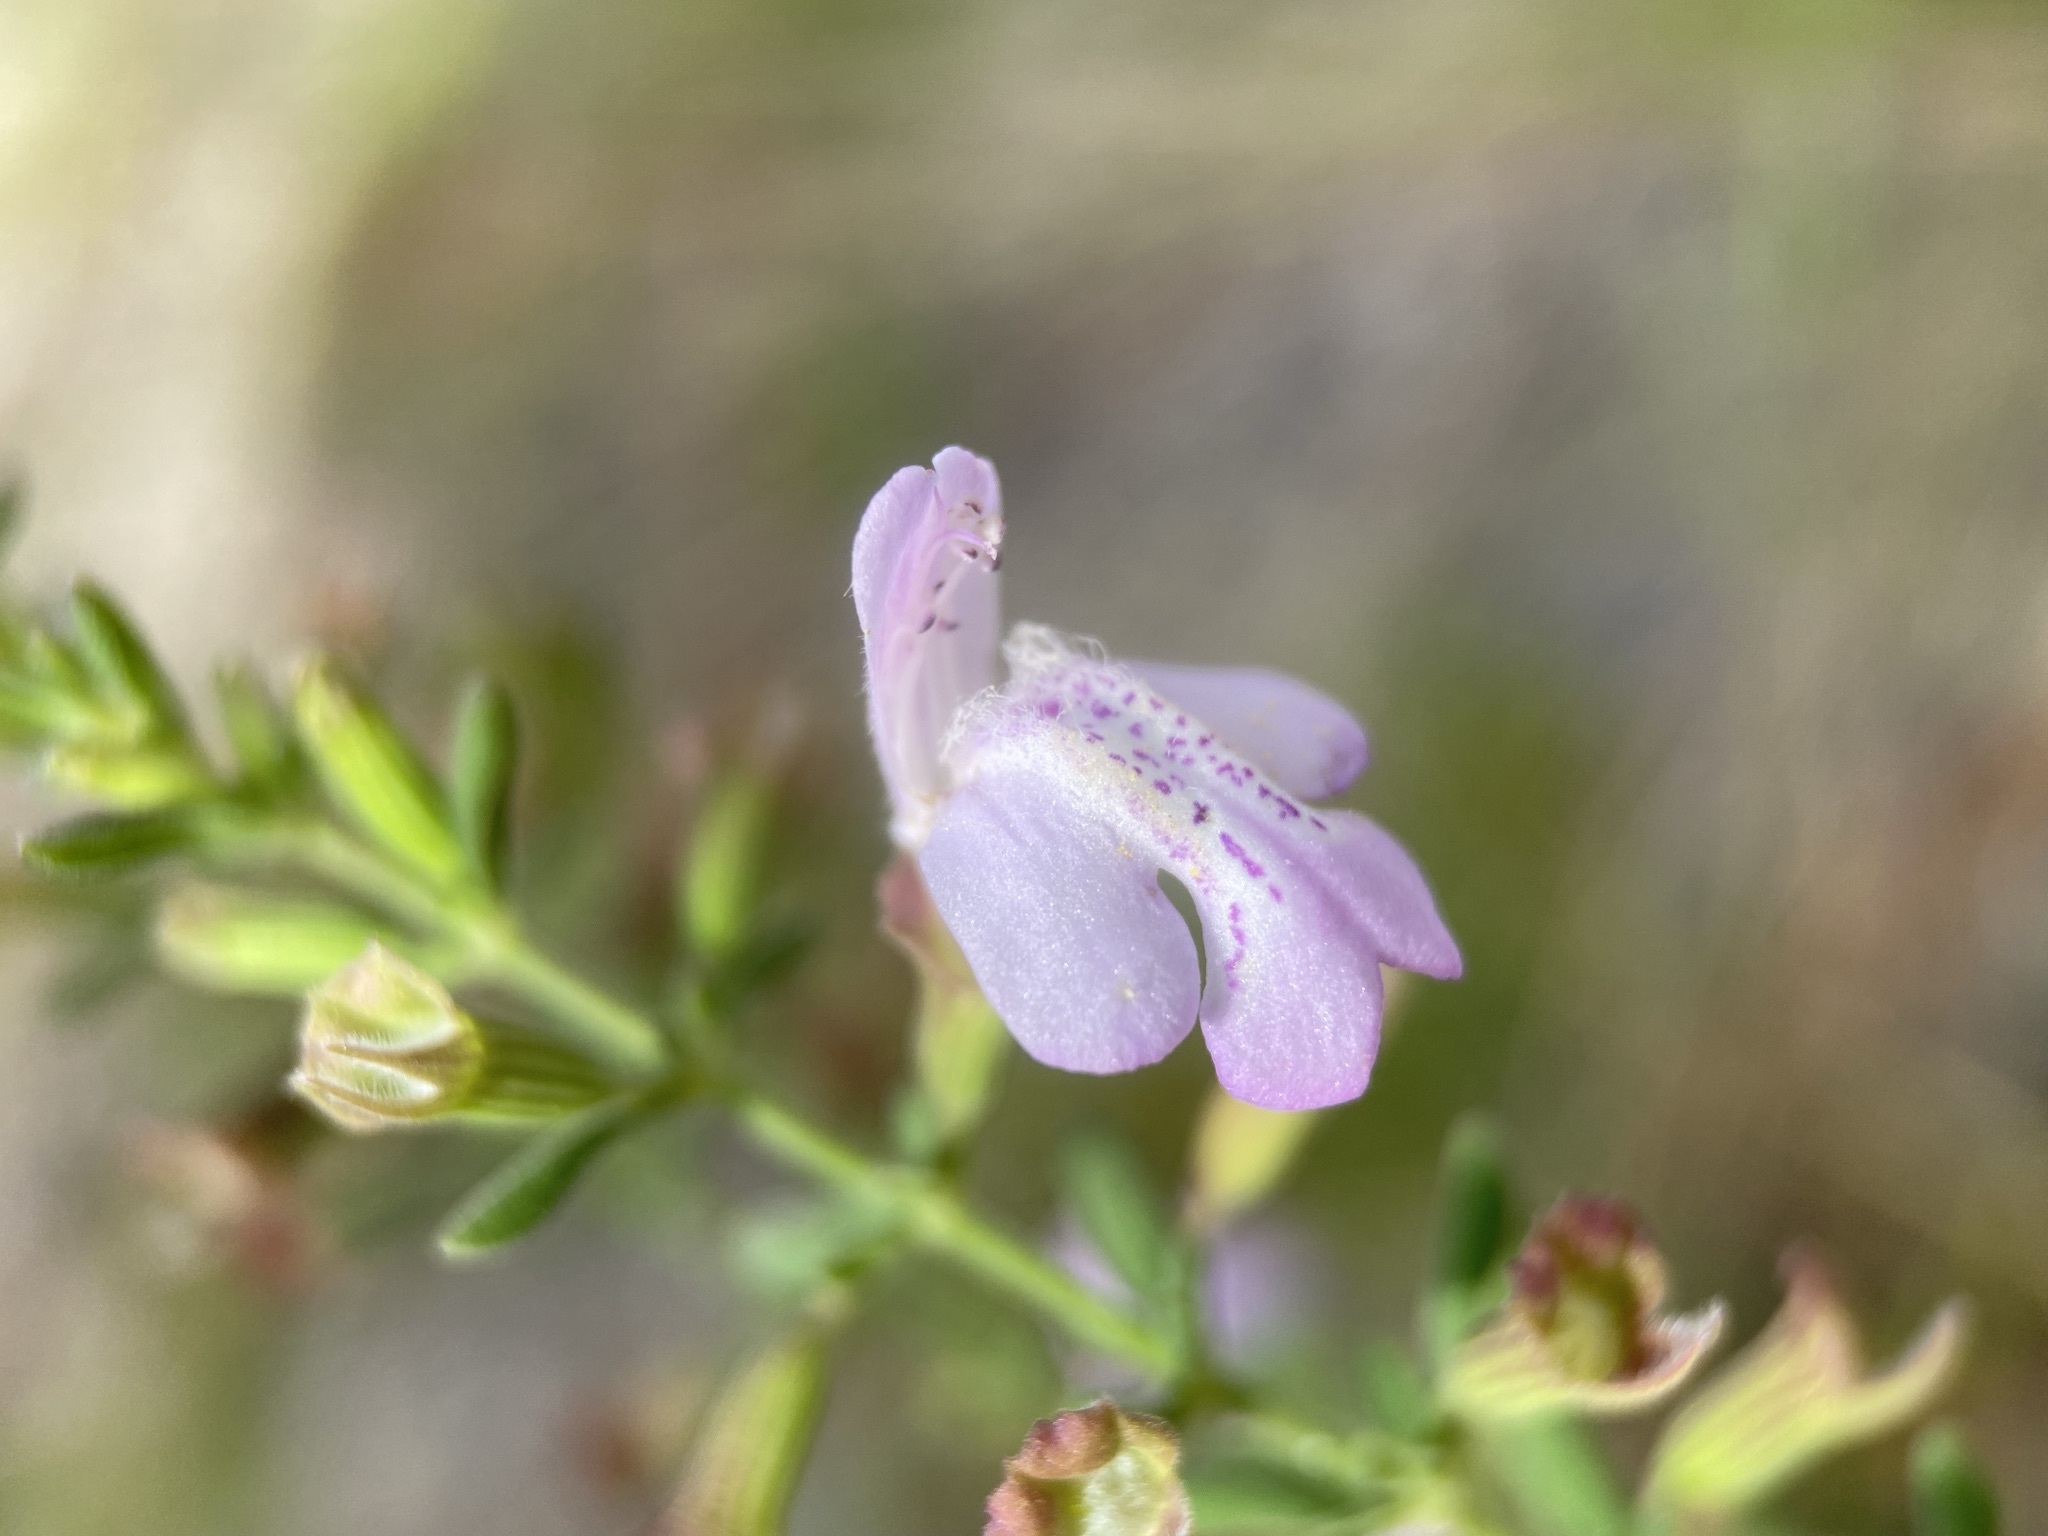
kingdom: Plantae
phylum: Tracheophyta
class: Magnoliopsida
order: Lamiales
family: Lamiaceae
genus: Clinopodium
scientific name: Clinopodium dentatum
